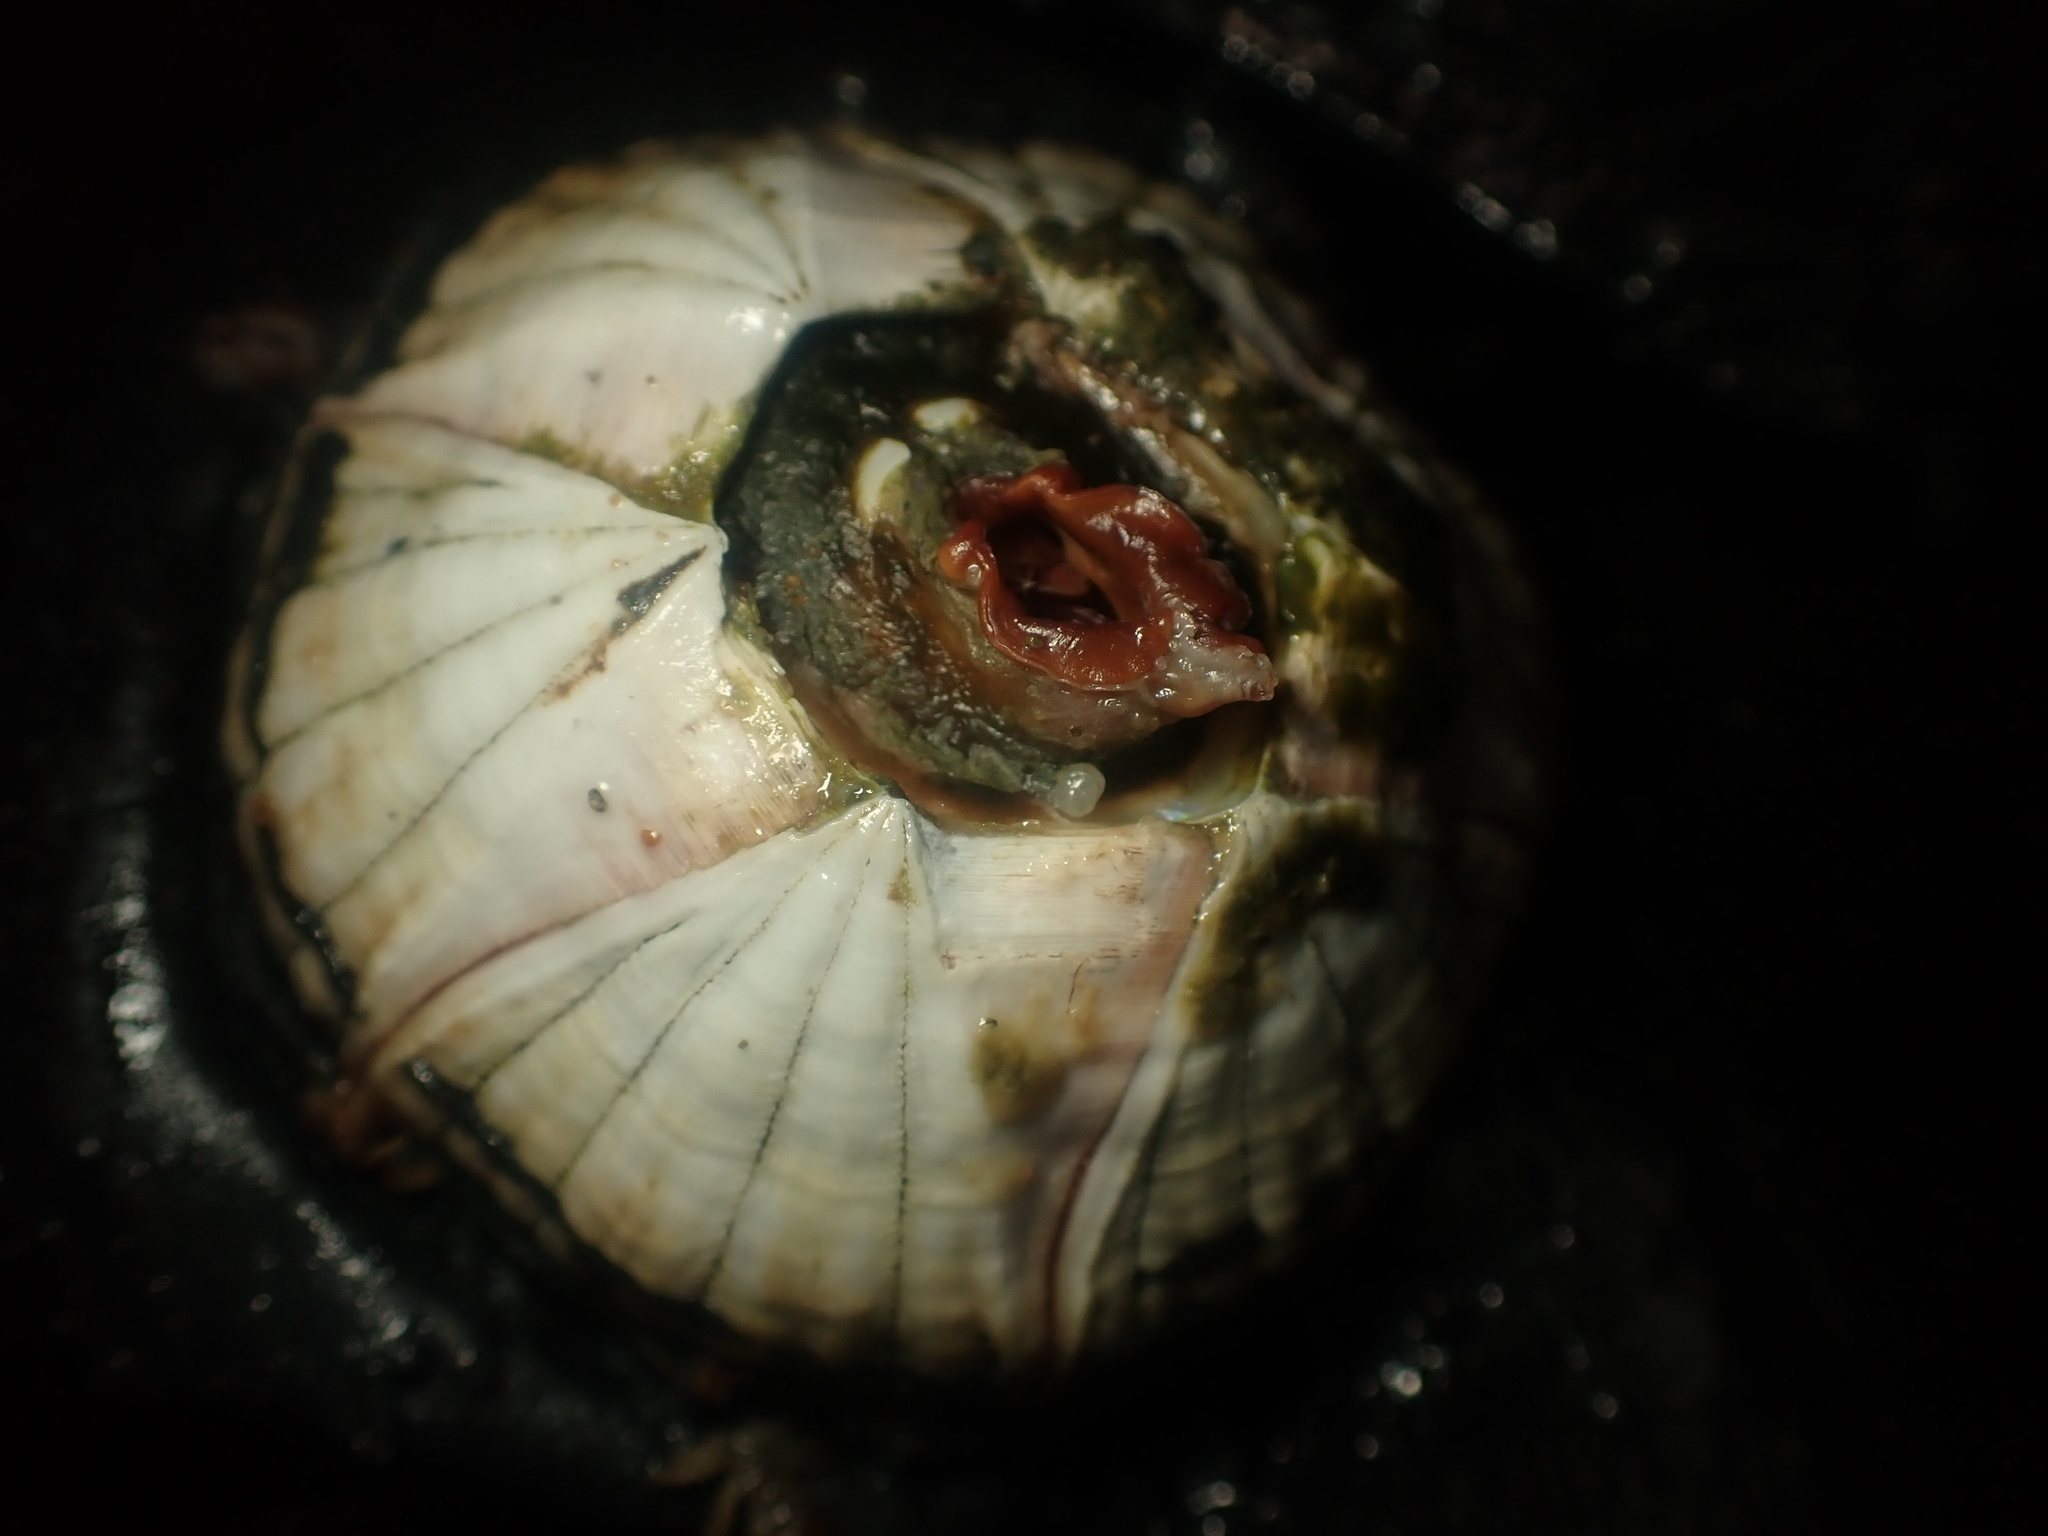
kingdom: Animalia
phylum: Arthropoda
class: Maxillopoda
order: Sessilia
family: Coronulidae
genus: Coronula
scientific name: Coronula diadema
